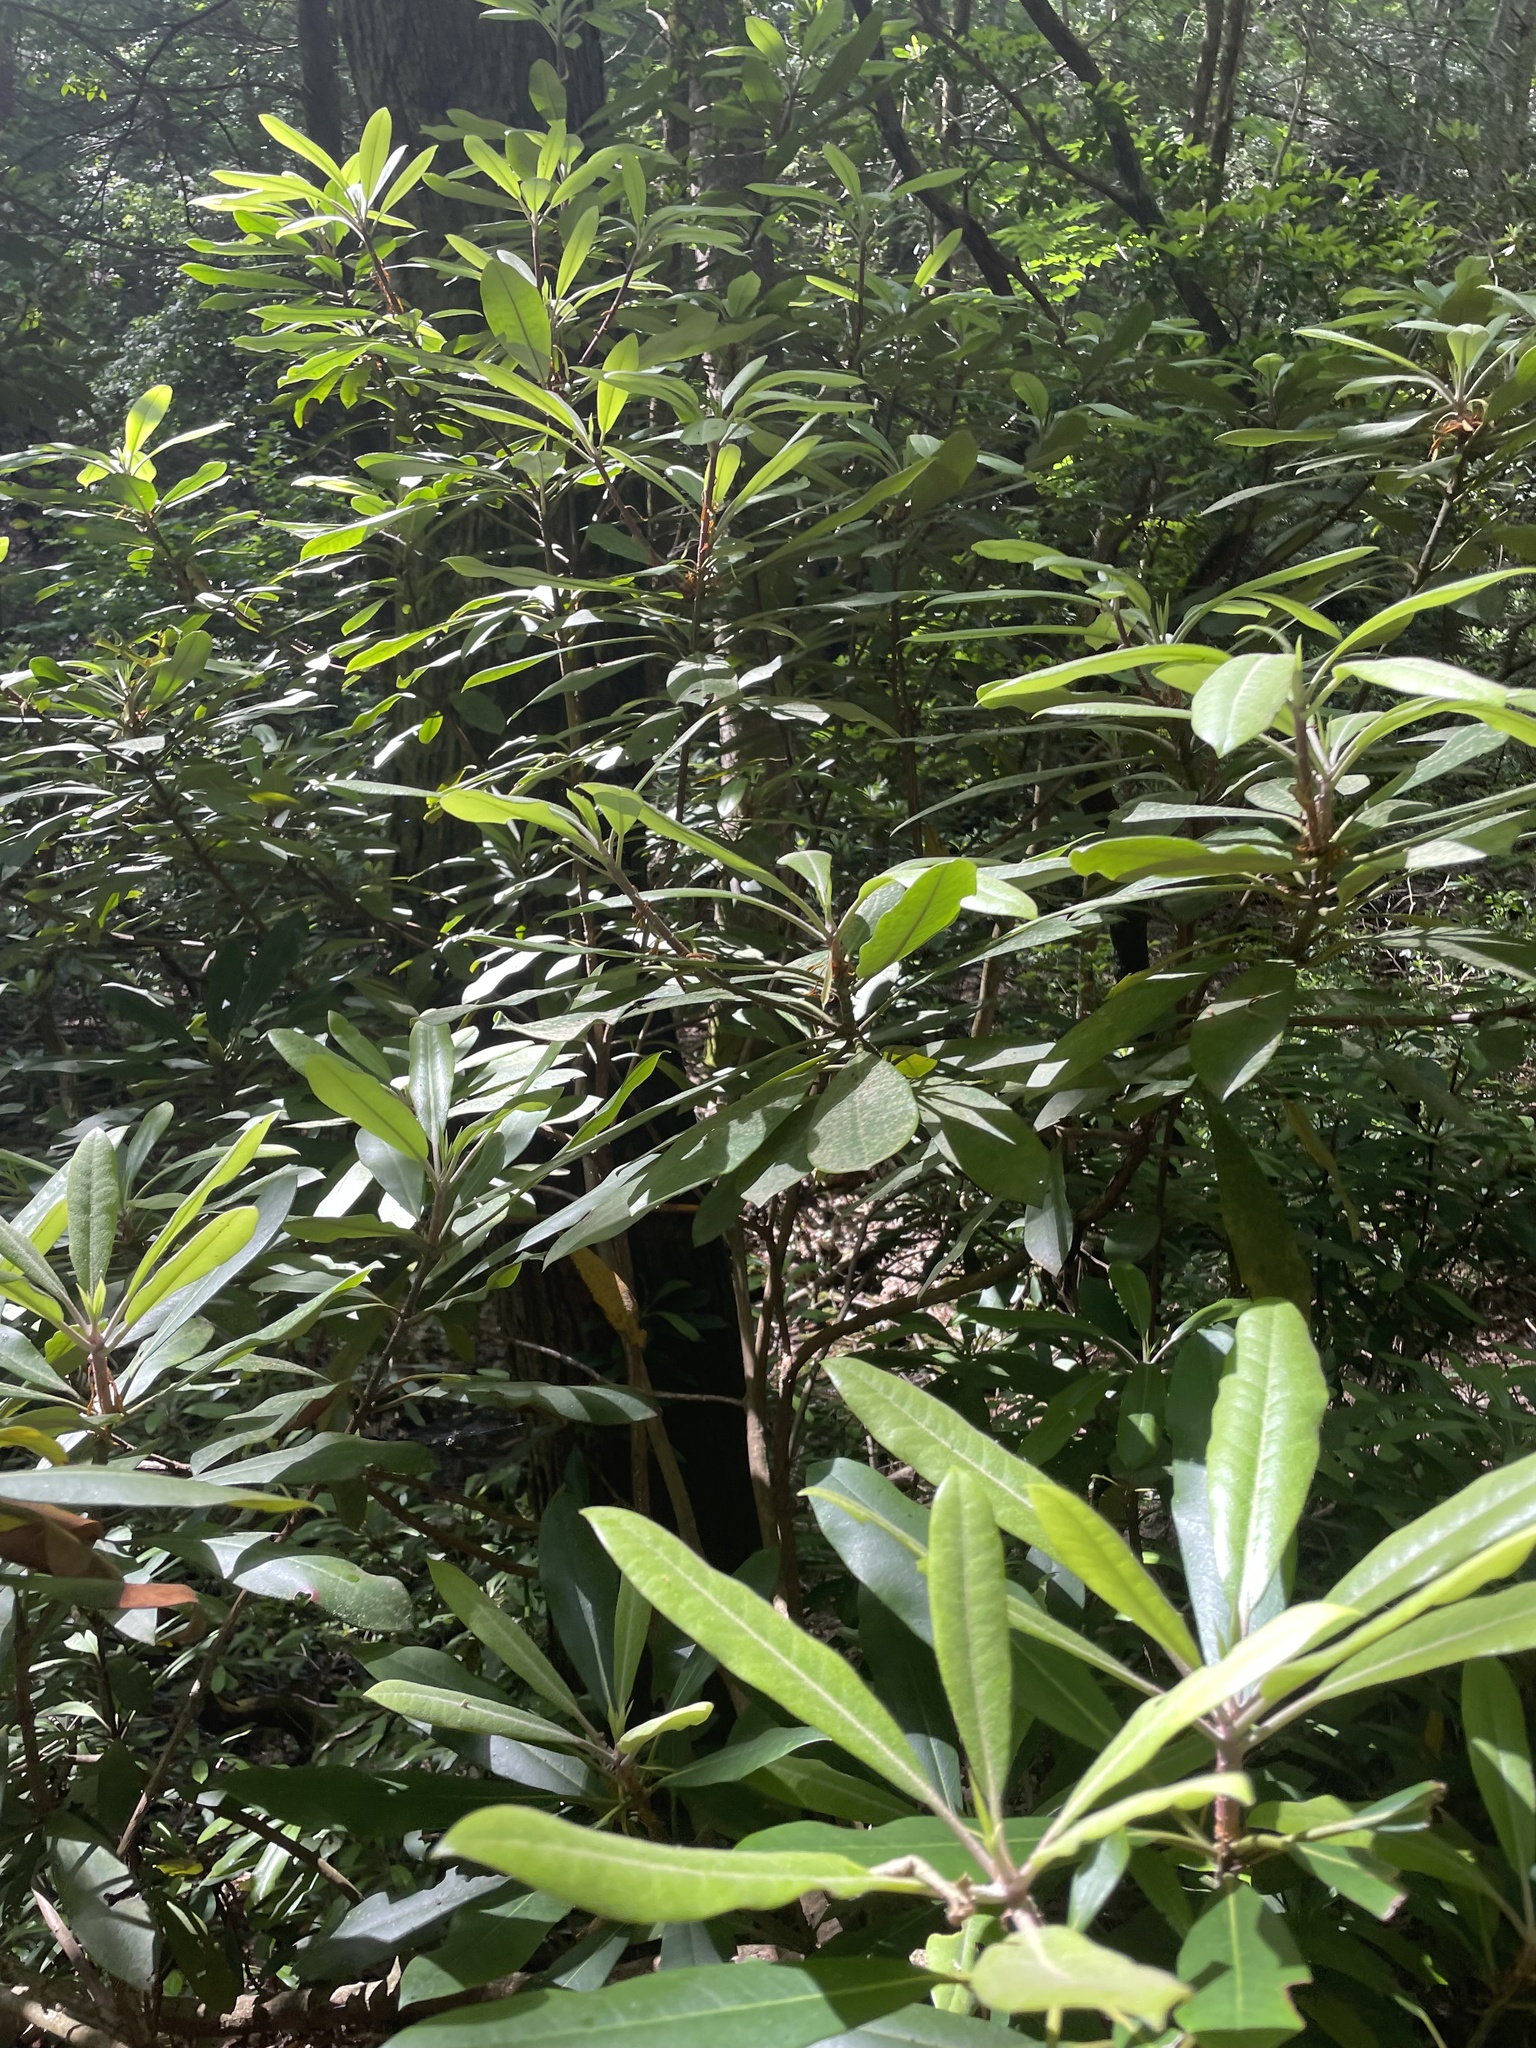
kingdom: Plantae
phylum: Tracheophyta
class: Magnoliopsida
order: Ericales
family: Ericaceae
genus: Rhododendron
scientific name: Rhododendron maximum
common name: Great rhododendron
